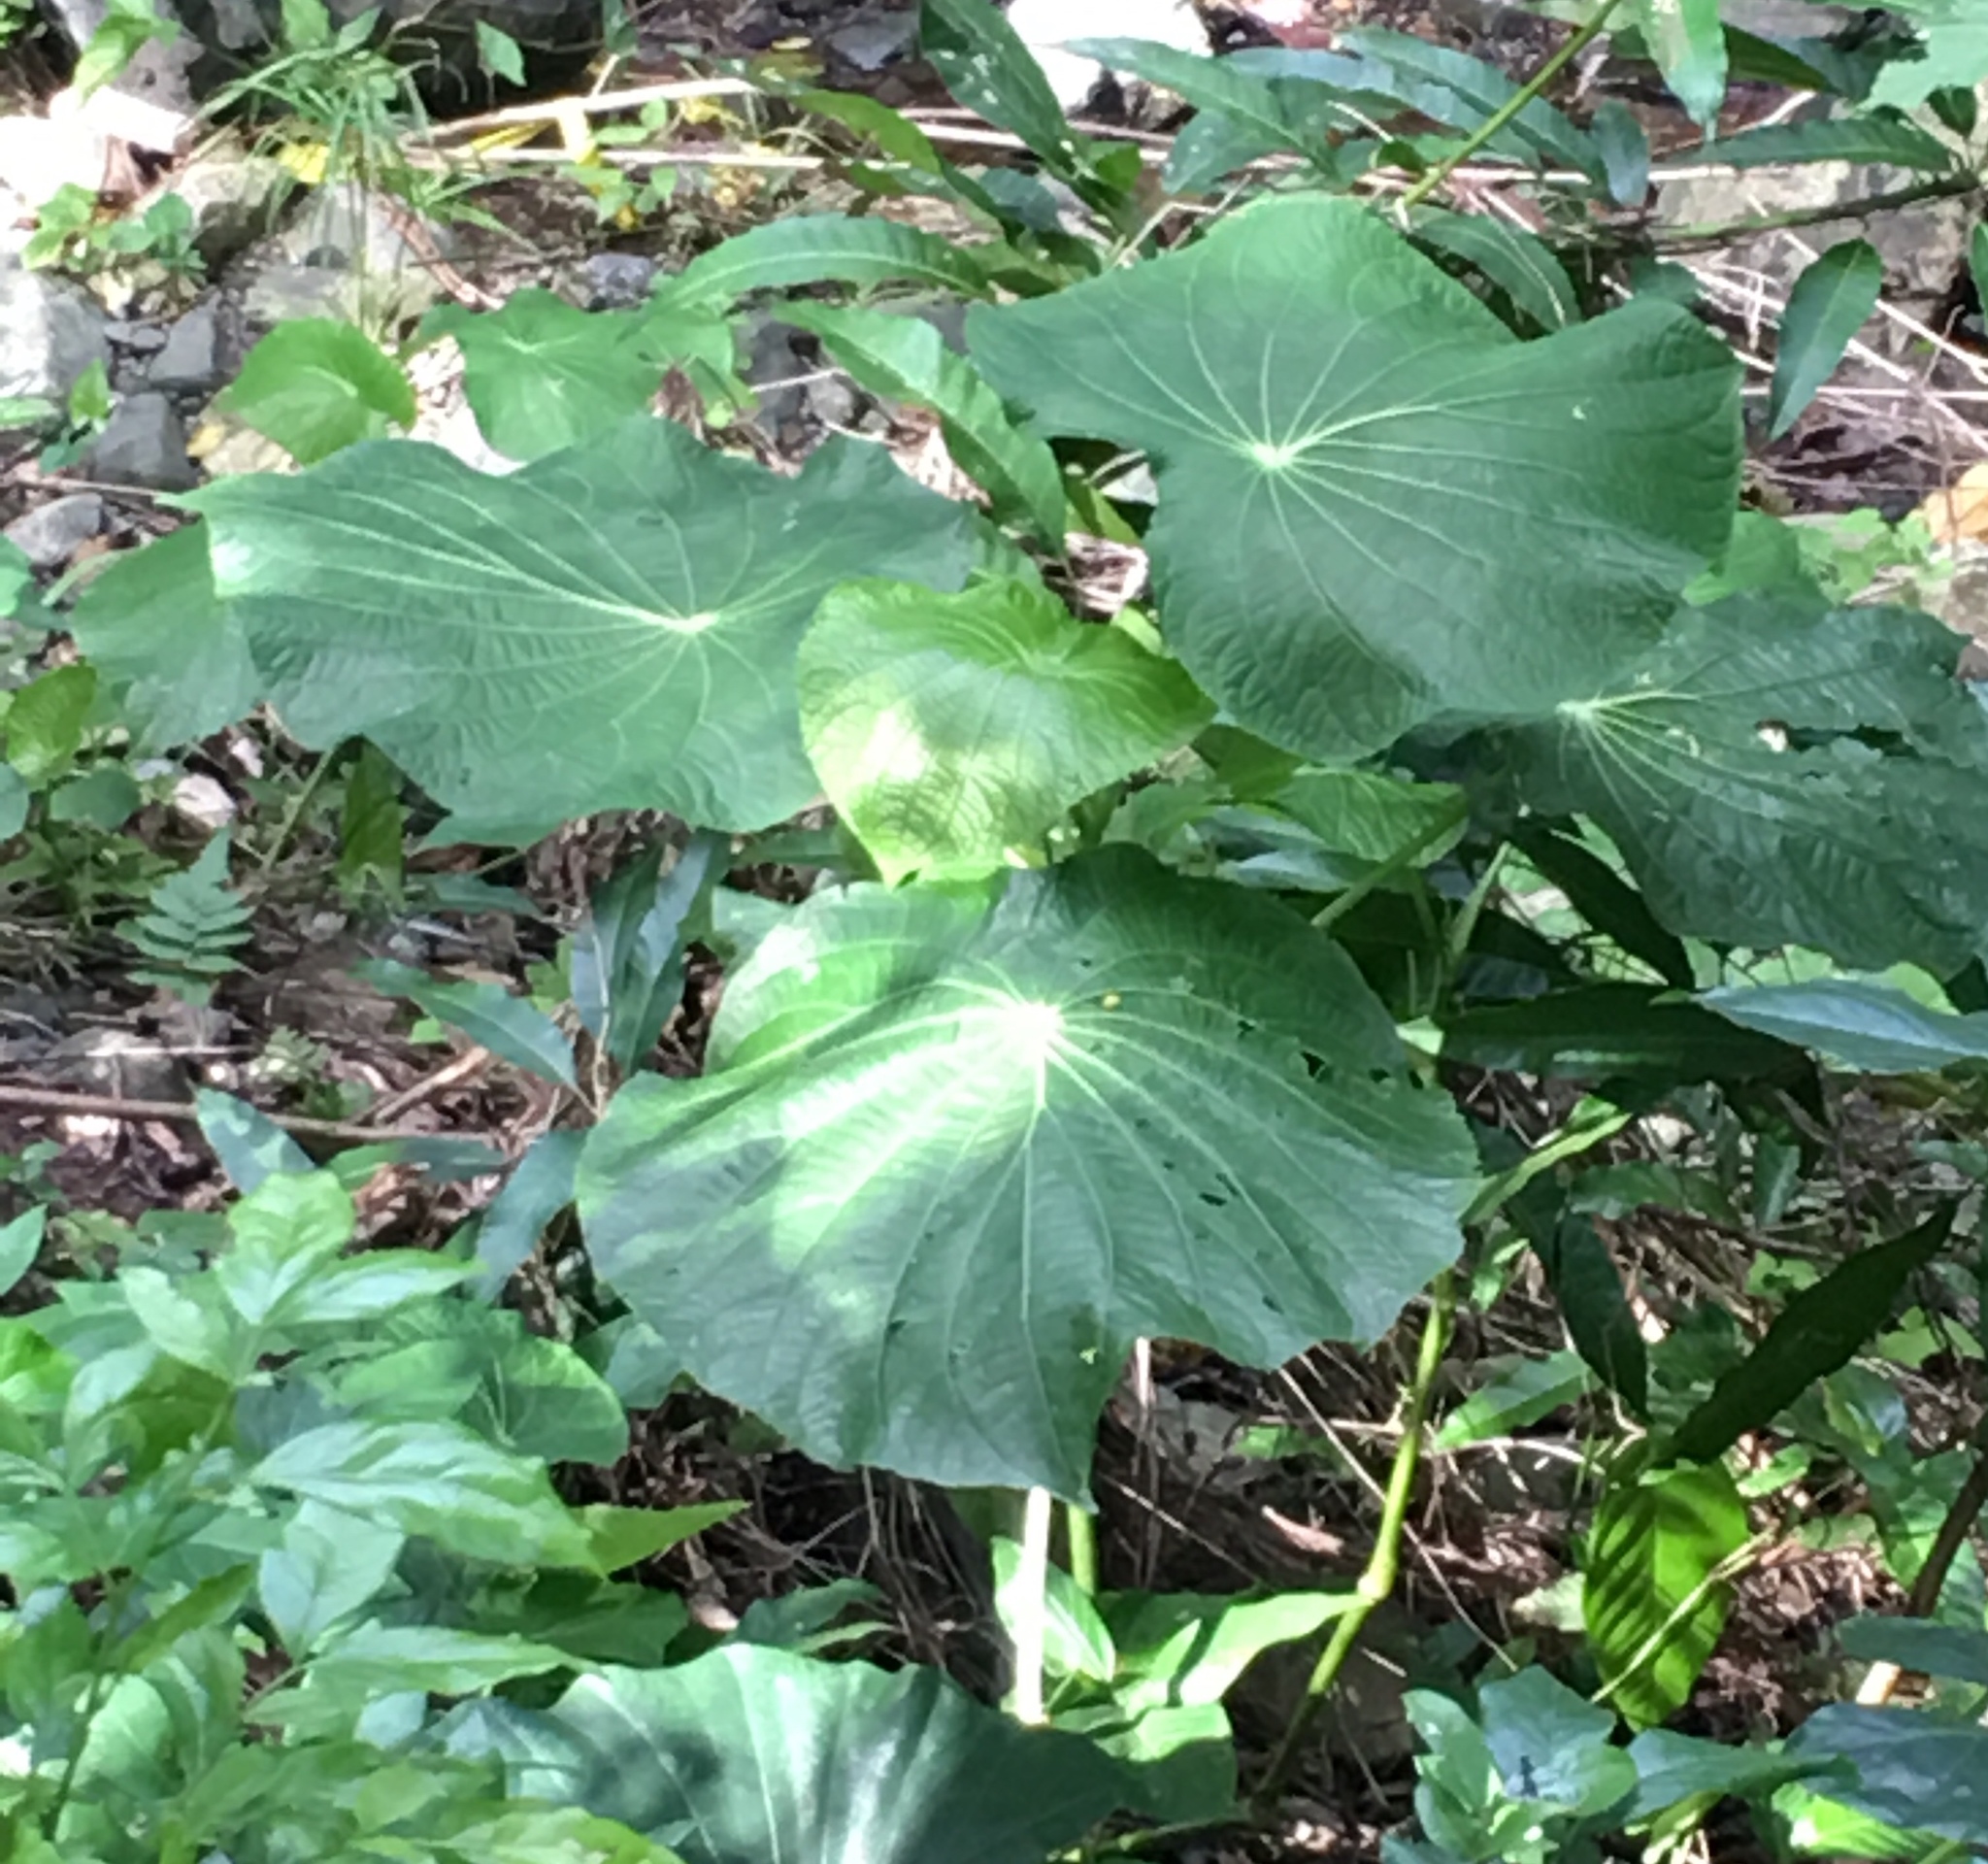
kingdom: Plantae
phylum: Tracheophyta
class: Magnoliopsida
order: Piperales
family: Piperaceae
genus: Piper
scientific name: Piper peltatum
